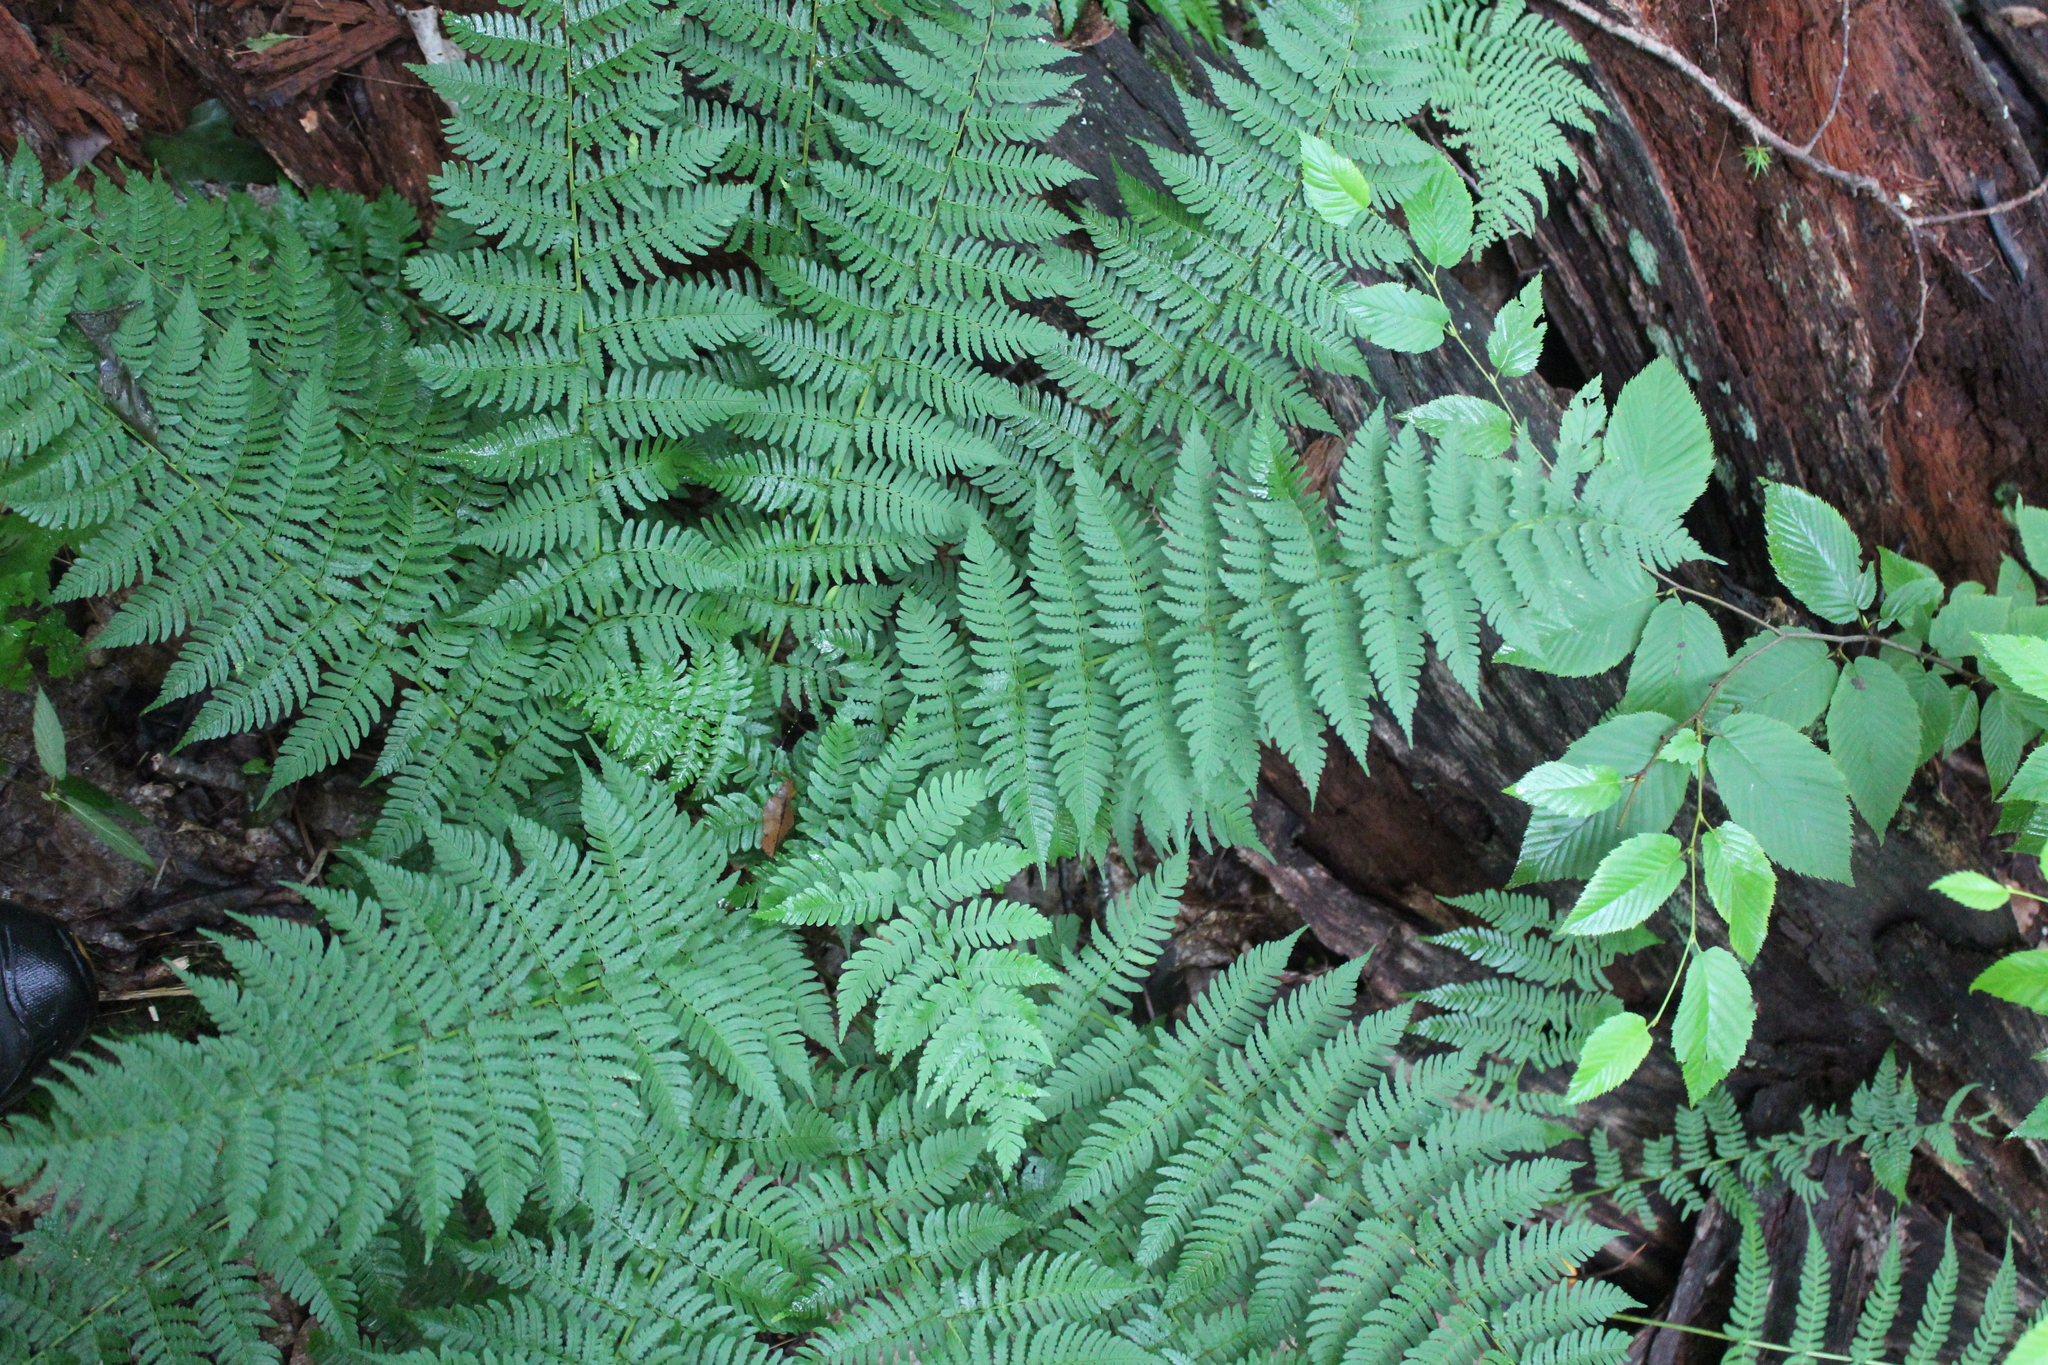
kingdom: Plantae
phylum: Tracheophyta
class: Polypodiopsida
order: Polypodiales
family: Dryopteridaceae
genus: Dryopteris
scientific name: Dryopteris marginalis
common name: Marginal wood fern
